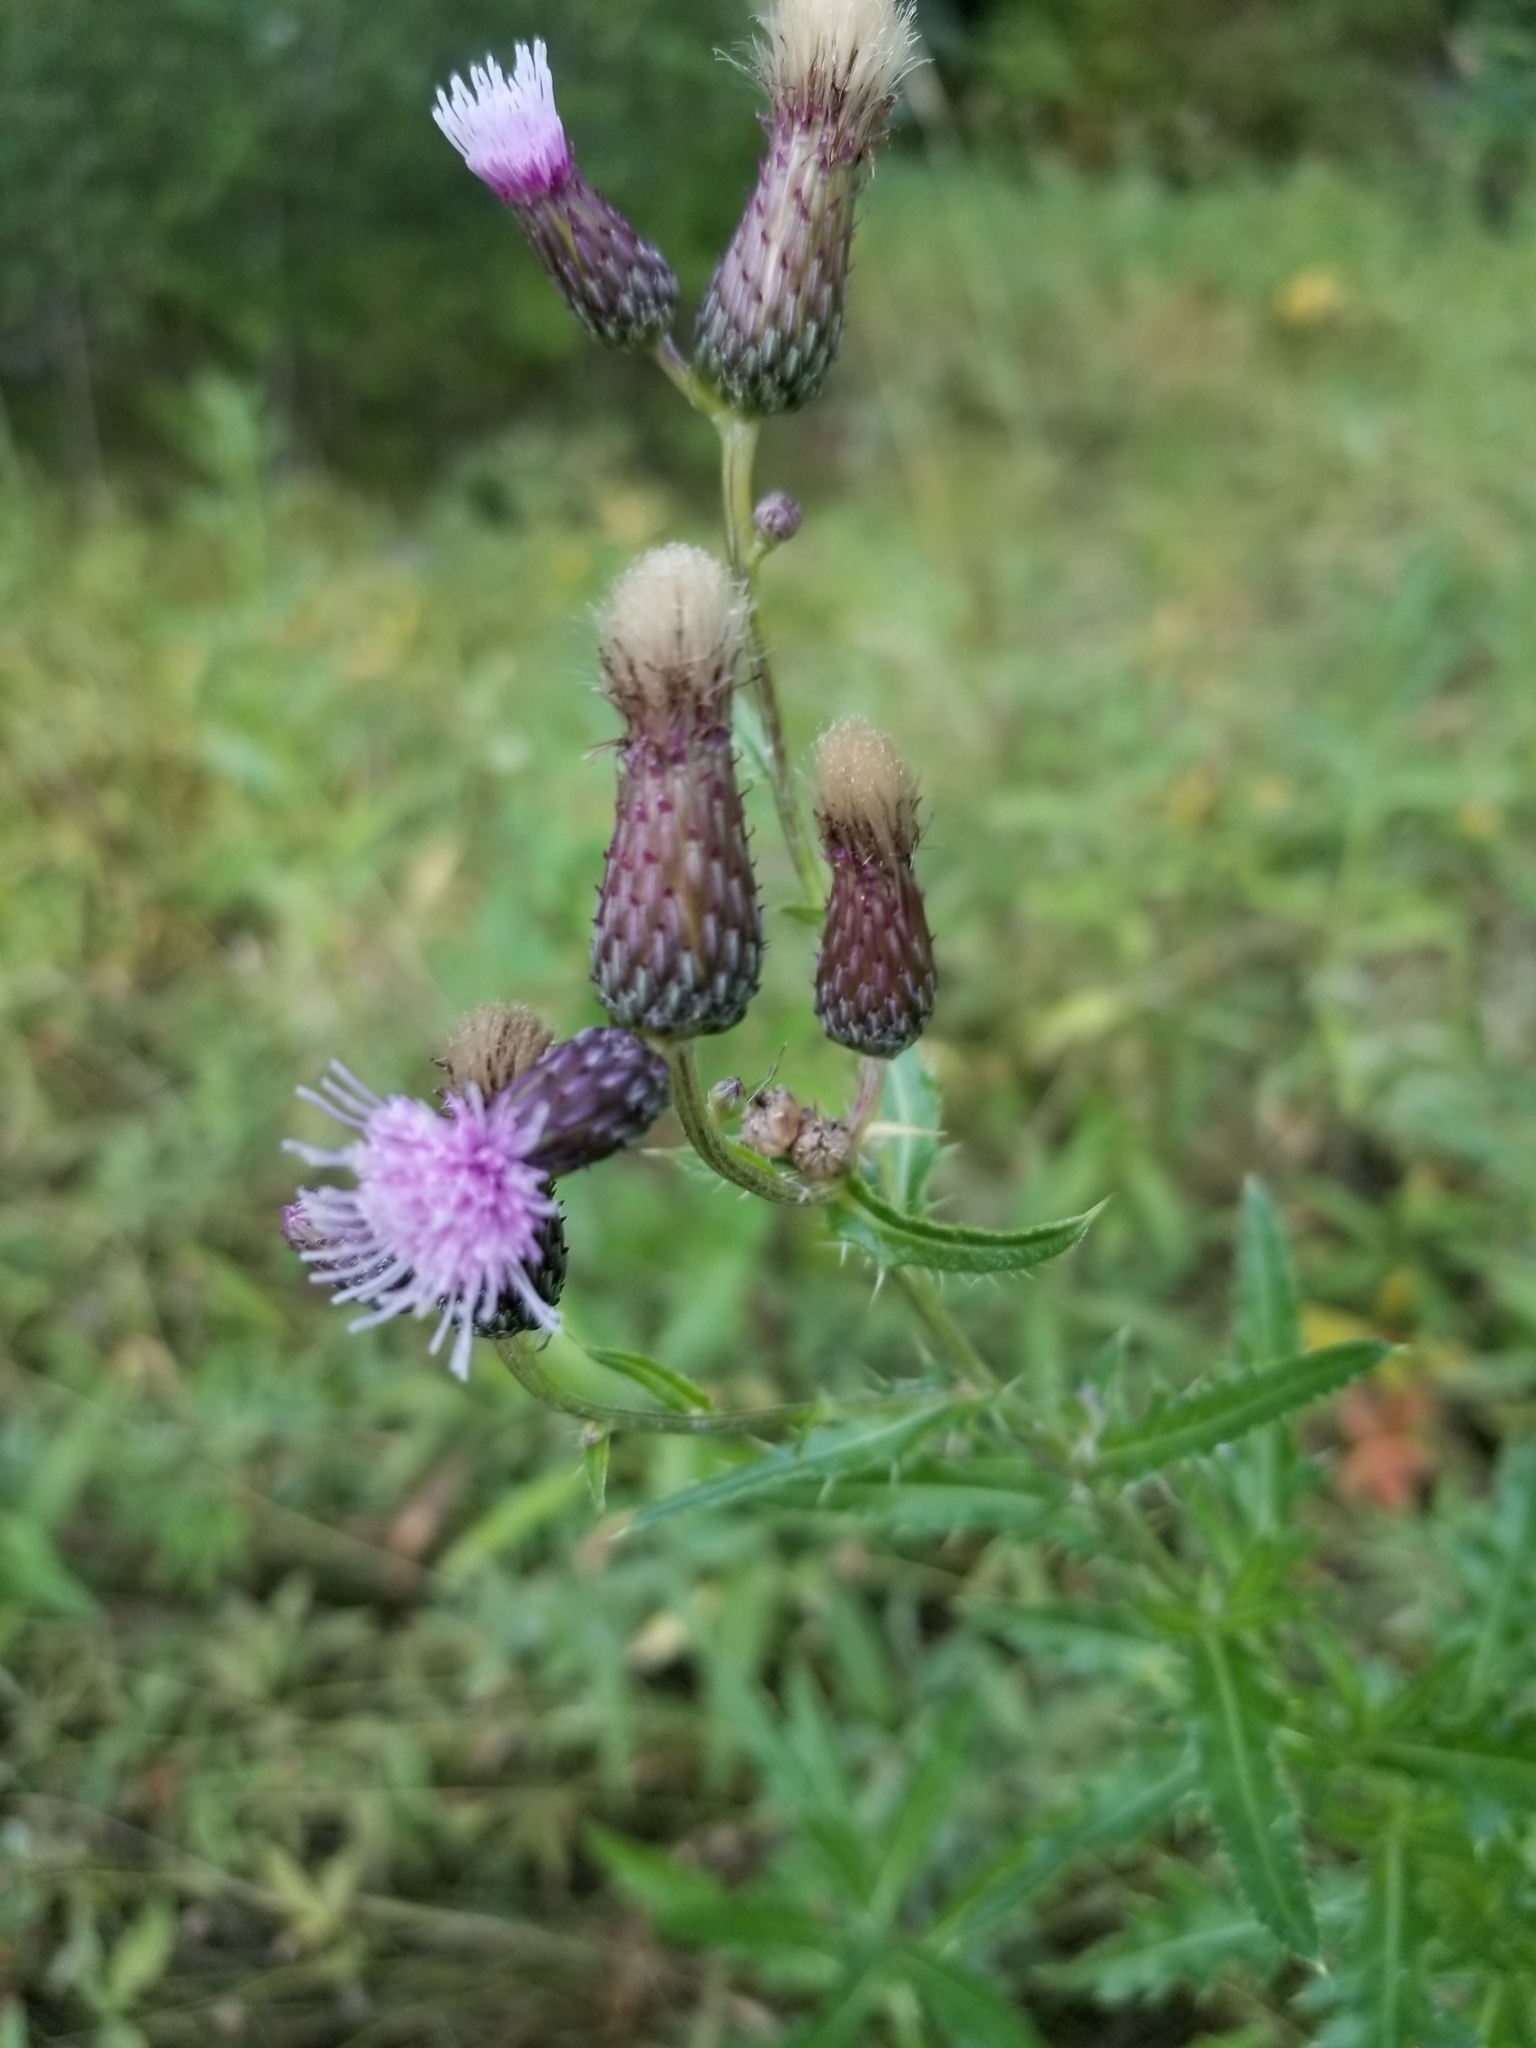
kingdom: Plantae
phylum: Tracheophyta
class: Magnoliopsida
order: Asterales
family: Asteraceae
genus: Cirsium
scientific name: Cirsium arvense
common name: Creeping thistle
